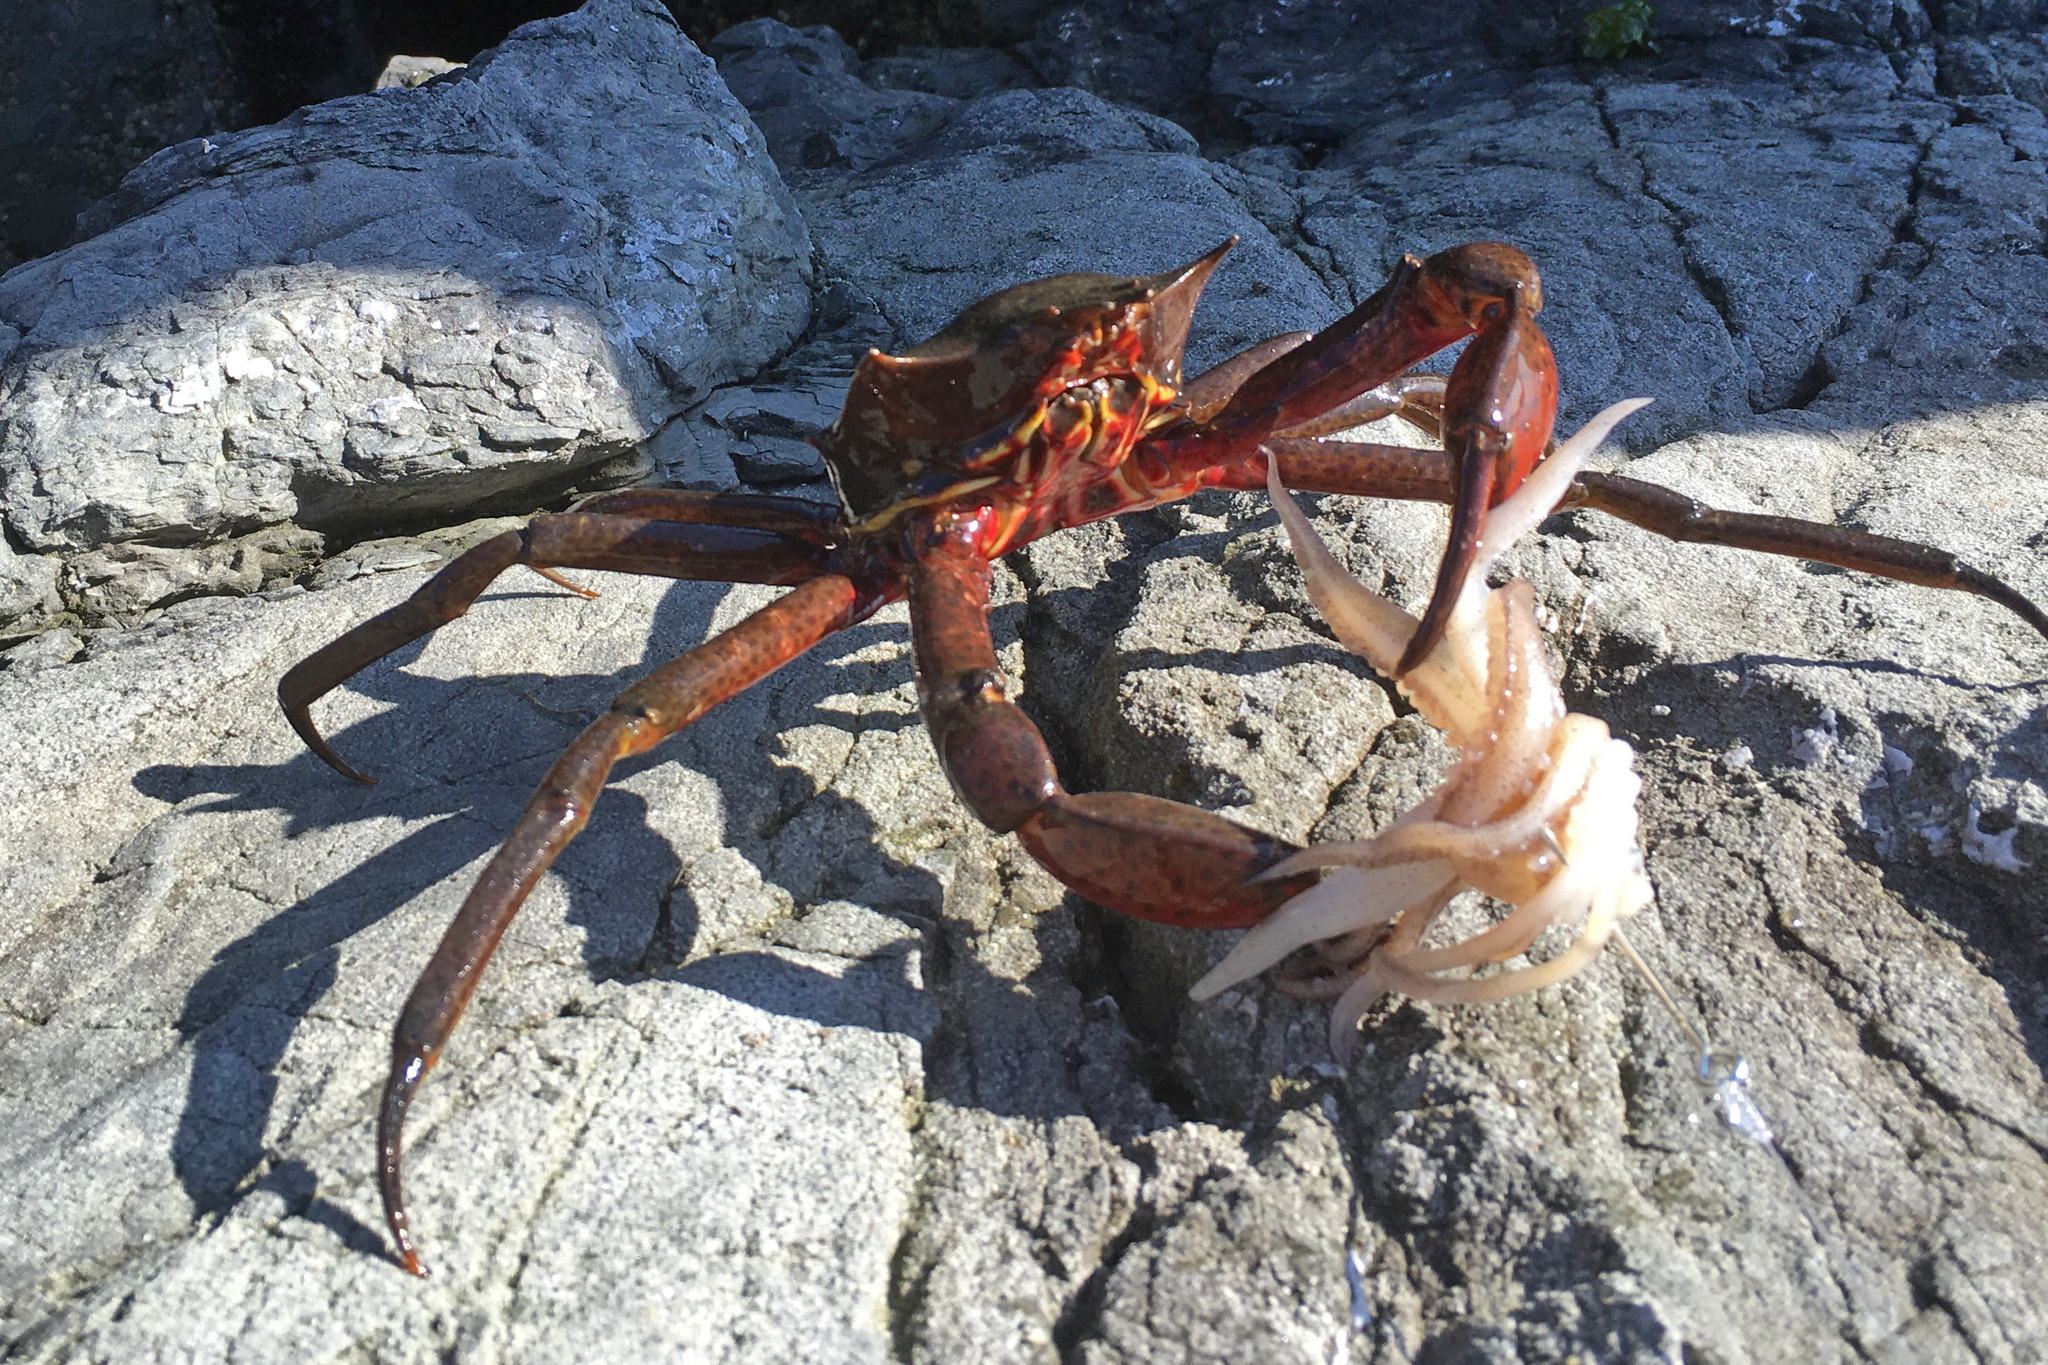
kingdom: Animalia
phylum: Arthropoda
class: Malacostraca
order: Decapoda
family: Epialtidae
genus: Pugettia
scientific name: Pugettia producta
